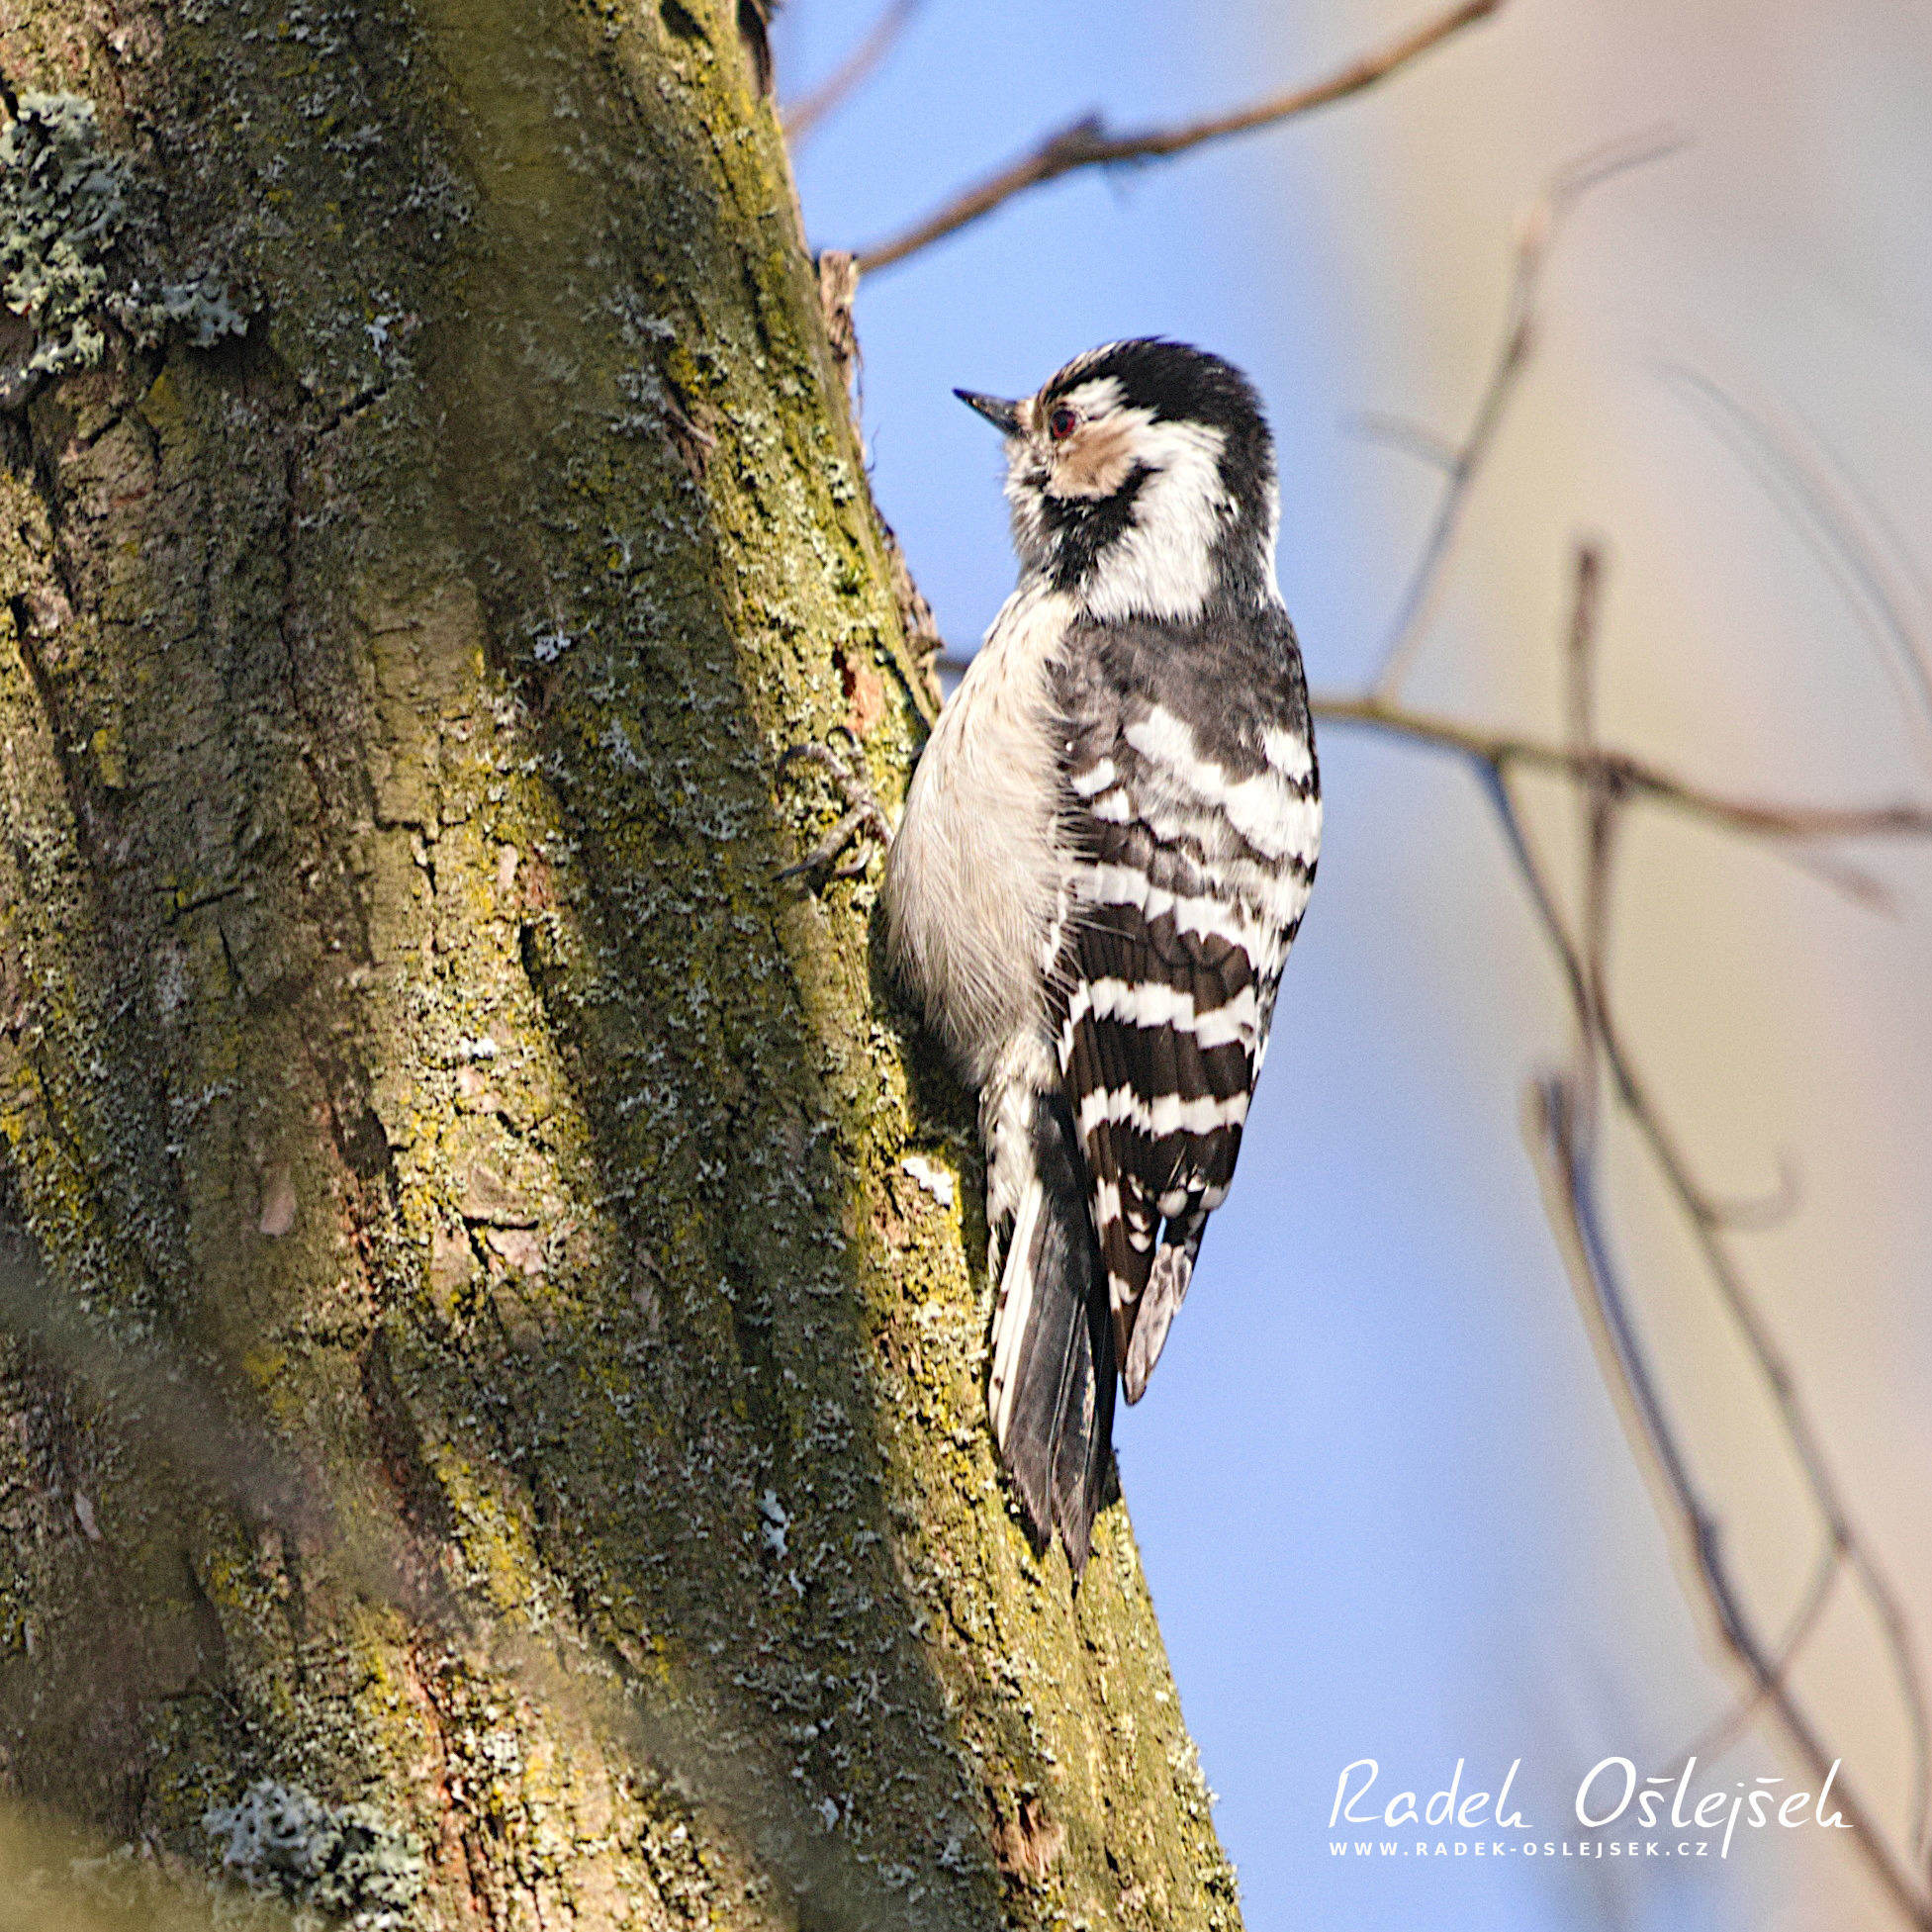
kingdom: Animalia
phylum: Chordata
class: Aves
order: Piciformes
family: Picidae
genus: Dryobates
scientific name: Dryobates minor
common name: Lesser spotted woodpecker
